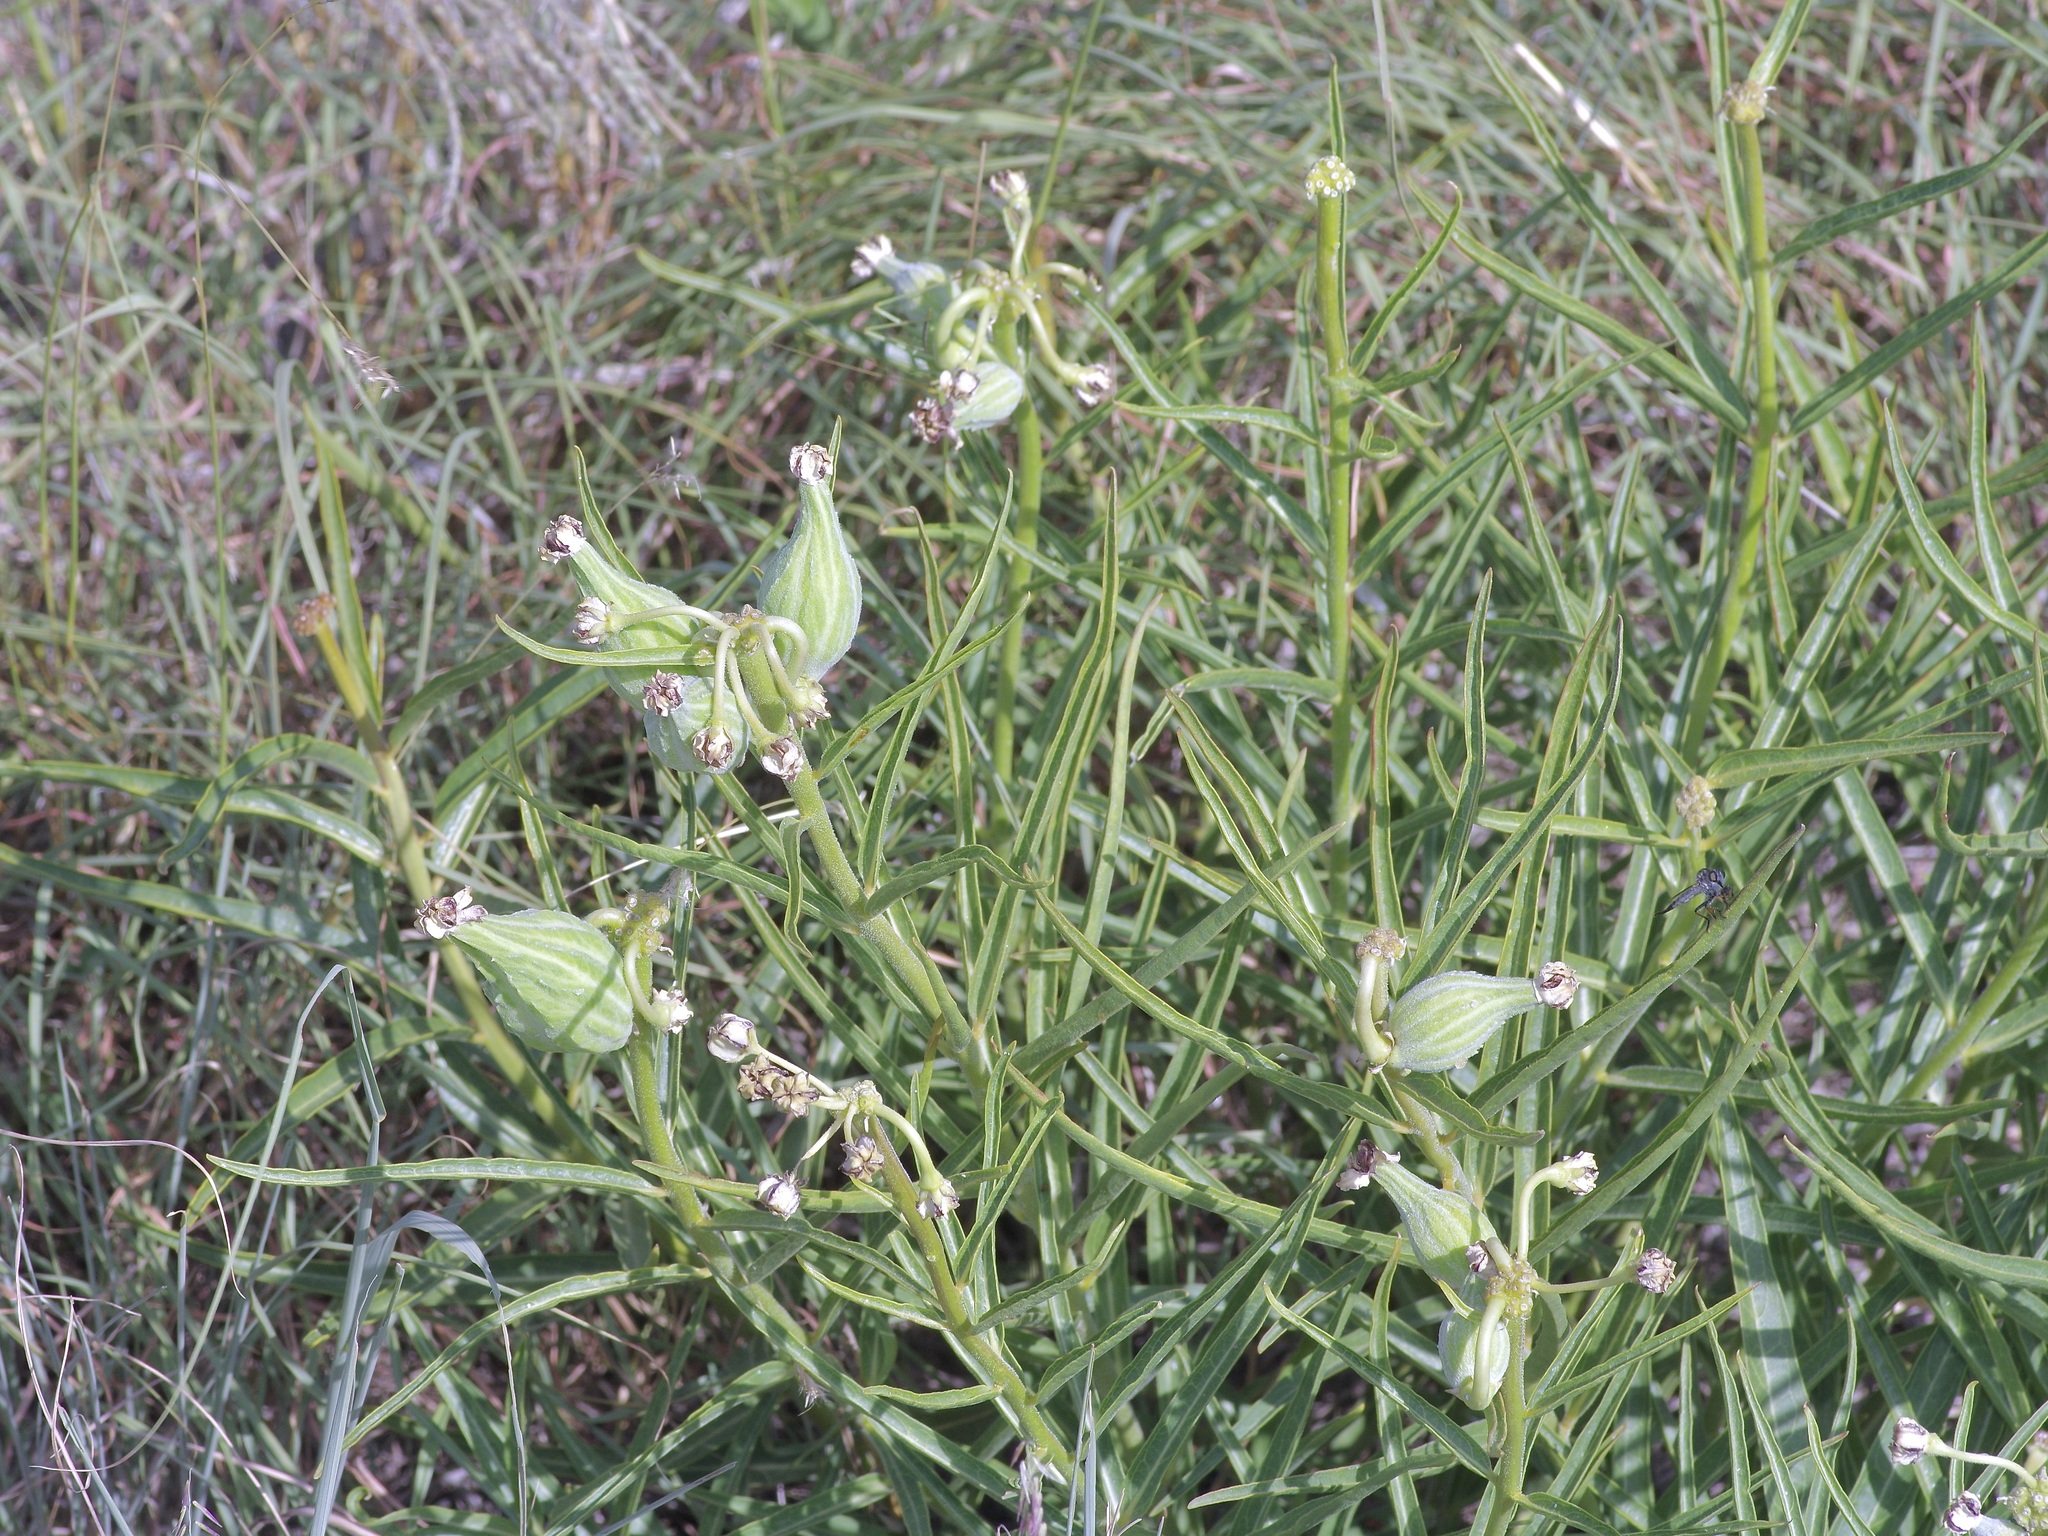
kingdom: Plantae
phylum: Tracheophyta
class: Magnoliopsida
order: Gentianales
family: Apocynaceae
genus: Asclepias
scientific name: Asclepias asperula
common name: Antelope horns
